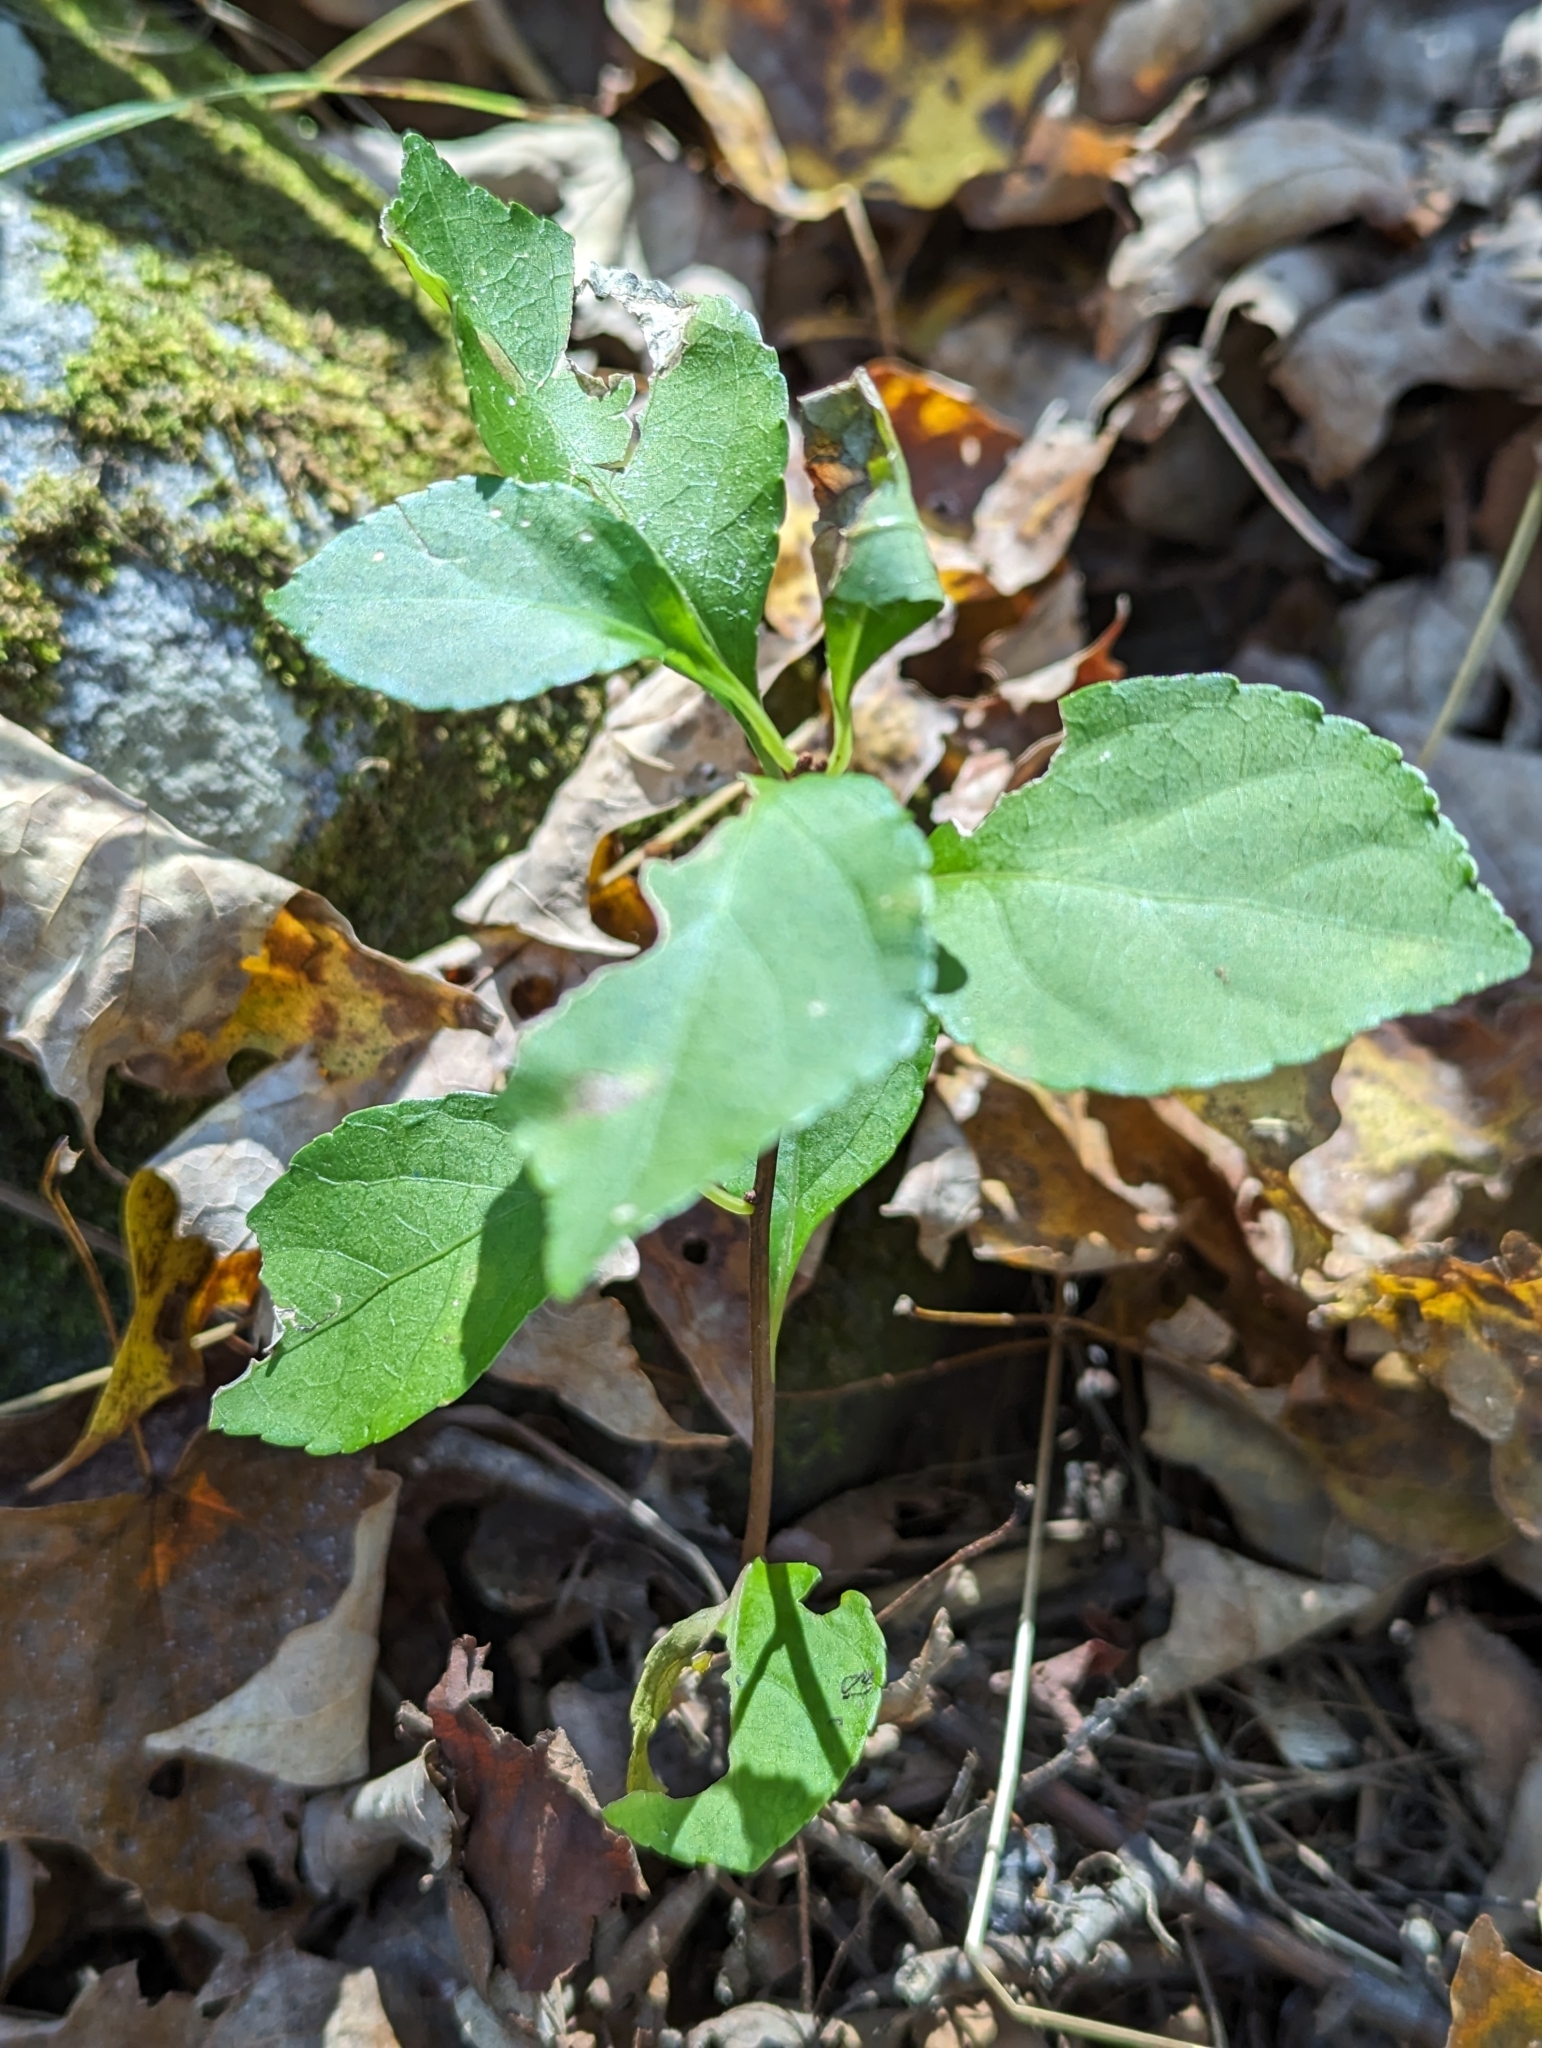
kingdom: Plantae
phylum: Tracheophyta
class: Magnoliopsida
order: Celastrales
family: Celastraceae
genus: Celastrus
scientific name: Celastrus orbiculatus
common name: Oriental bittersweet
